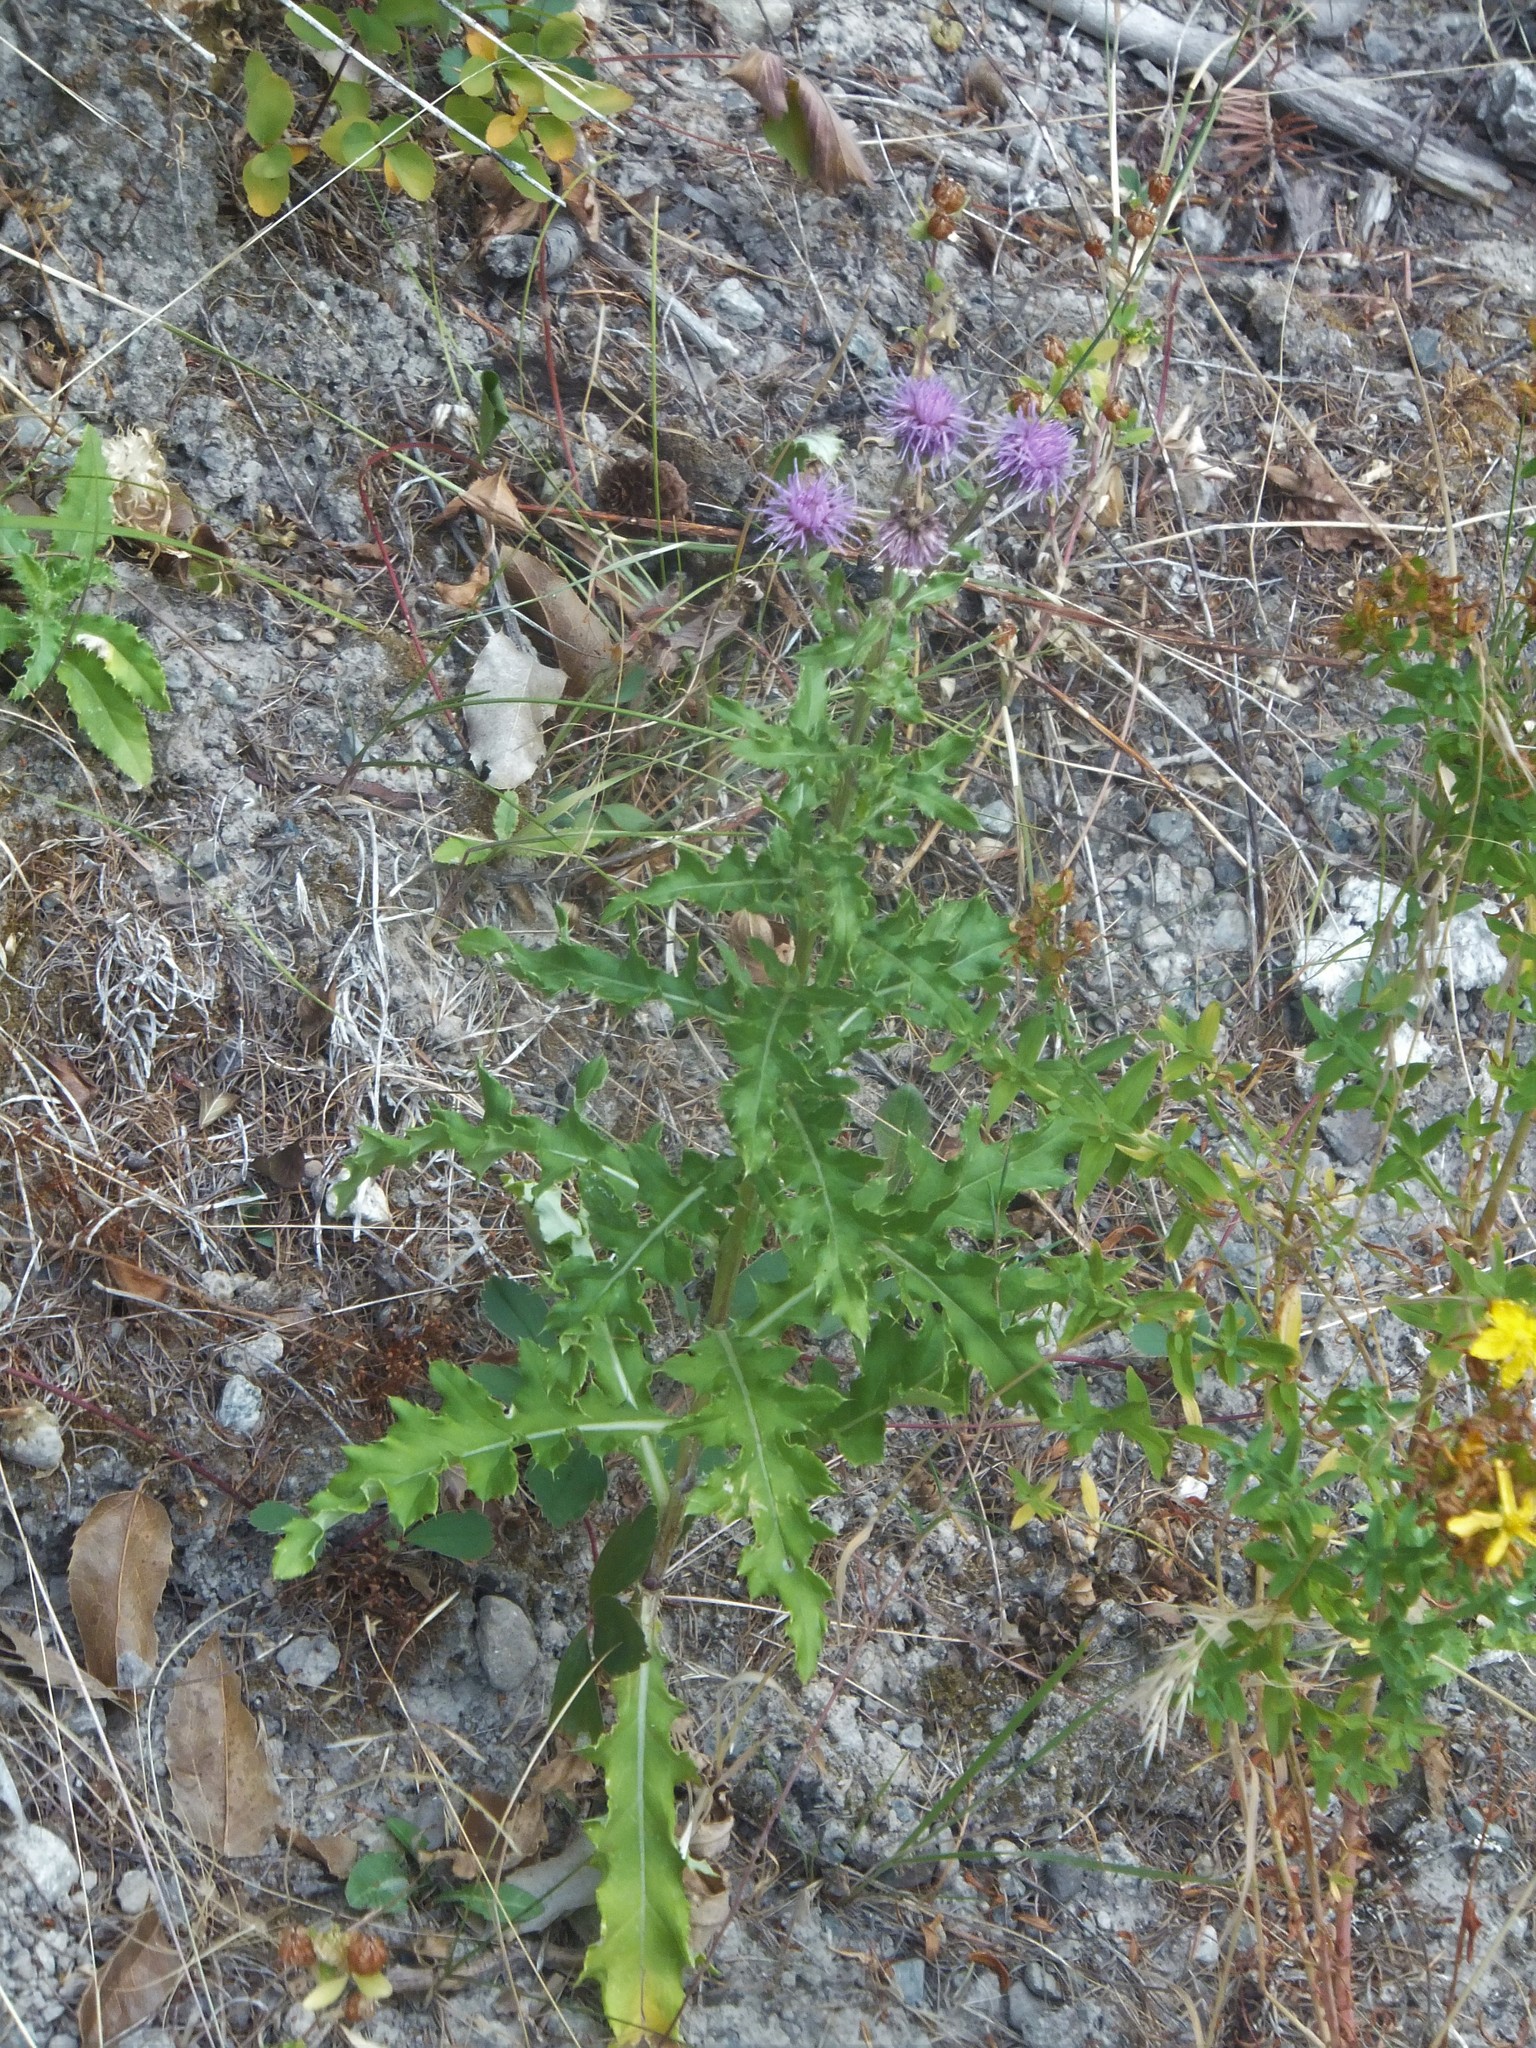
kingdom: Plantae
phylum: Tracheophyta
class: Magnoliopsida
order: Asterales
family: Asteraceae
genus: Cirsium
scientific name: Cirsium arvense
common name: Creeping thistle
